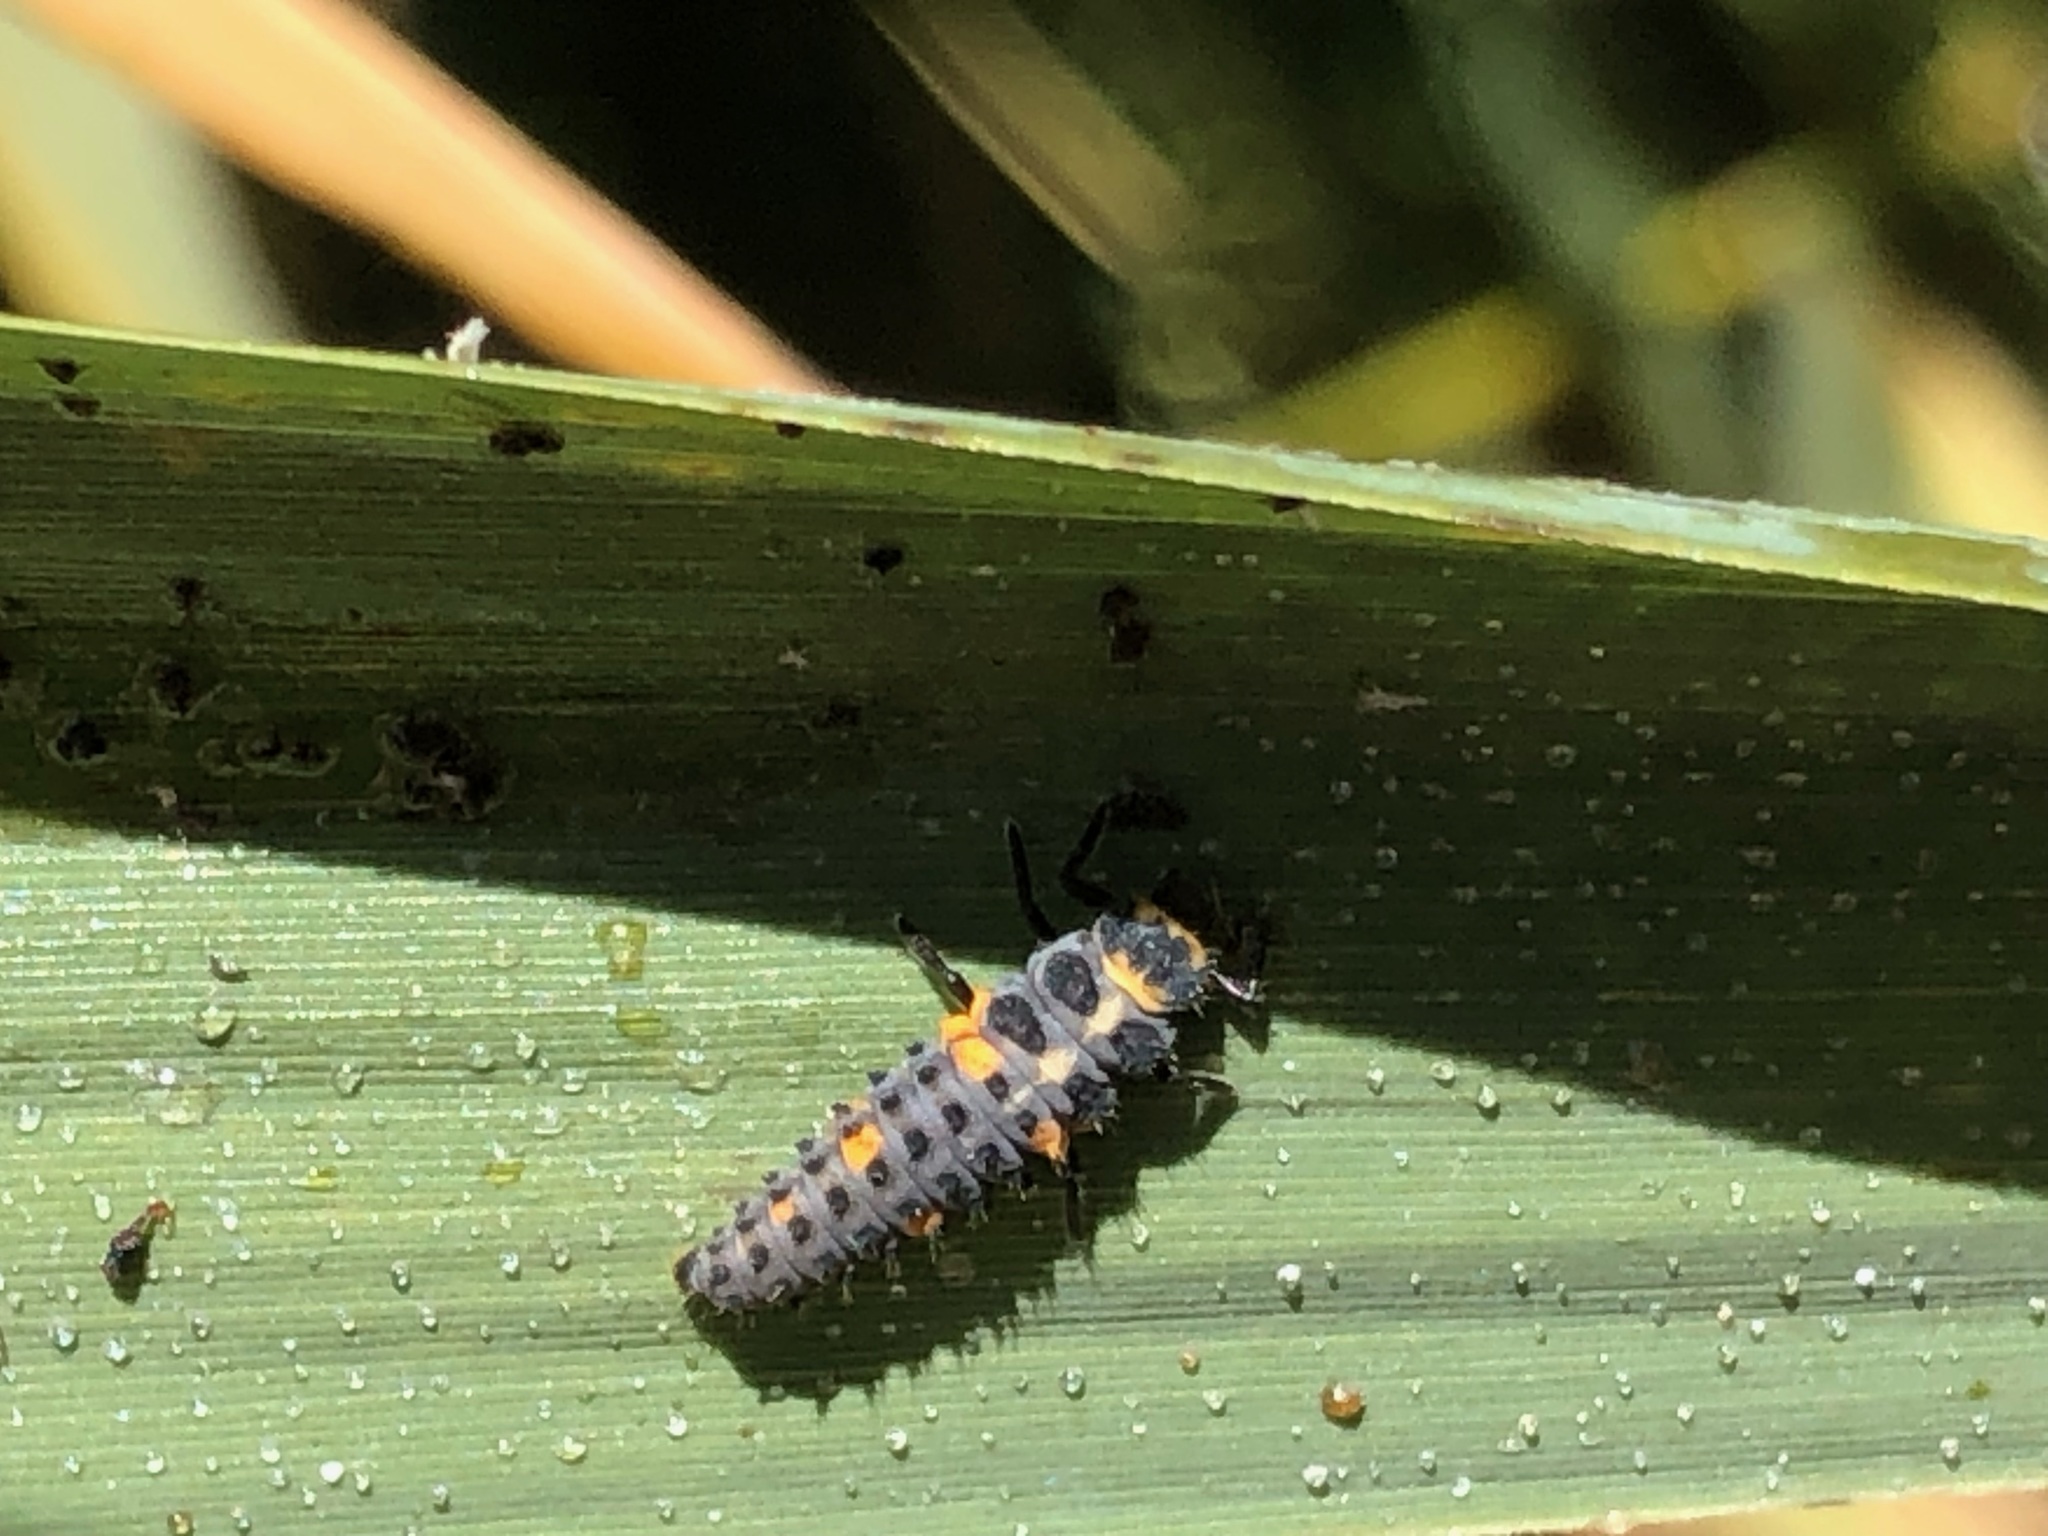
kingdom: Animalia
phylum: Arthropoda
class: Insecta
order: Coleoptera
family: Coccinellidae
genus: Coccinella
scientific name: Coccinella septempunctata
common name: Sevenspotted lady beetle
